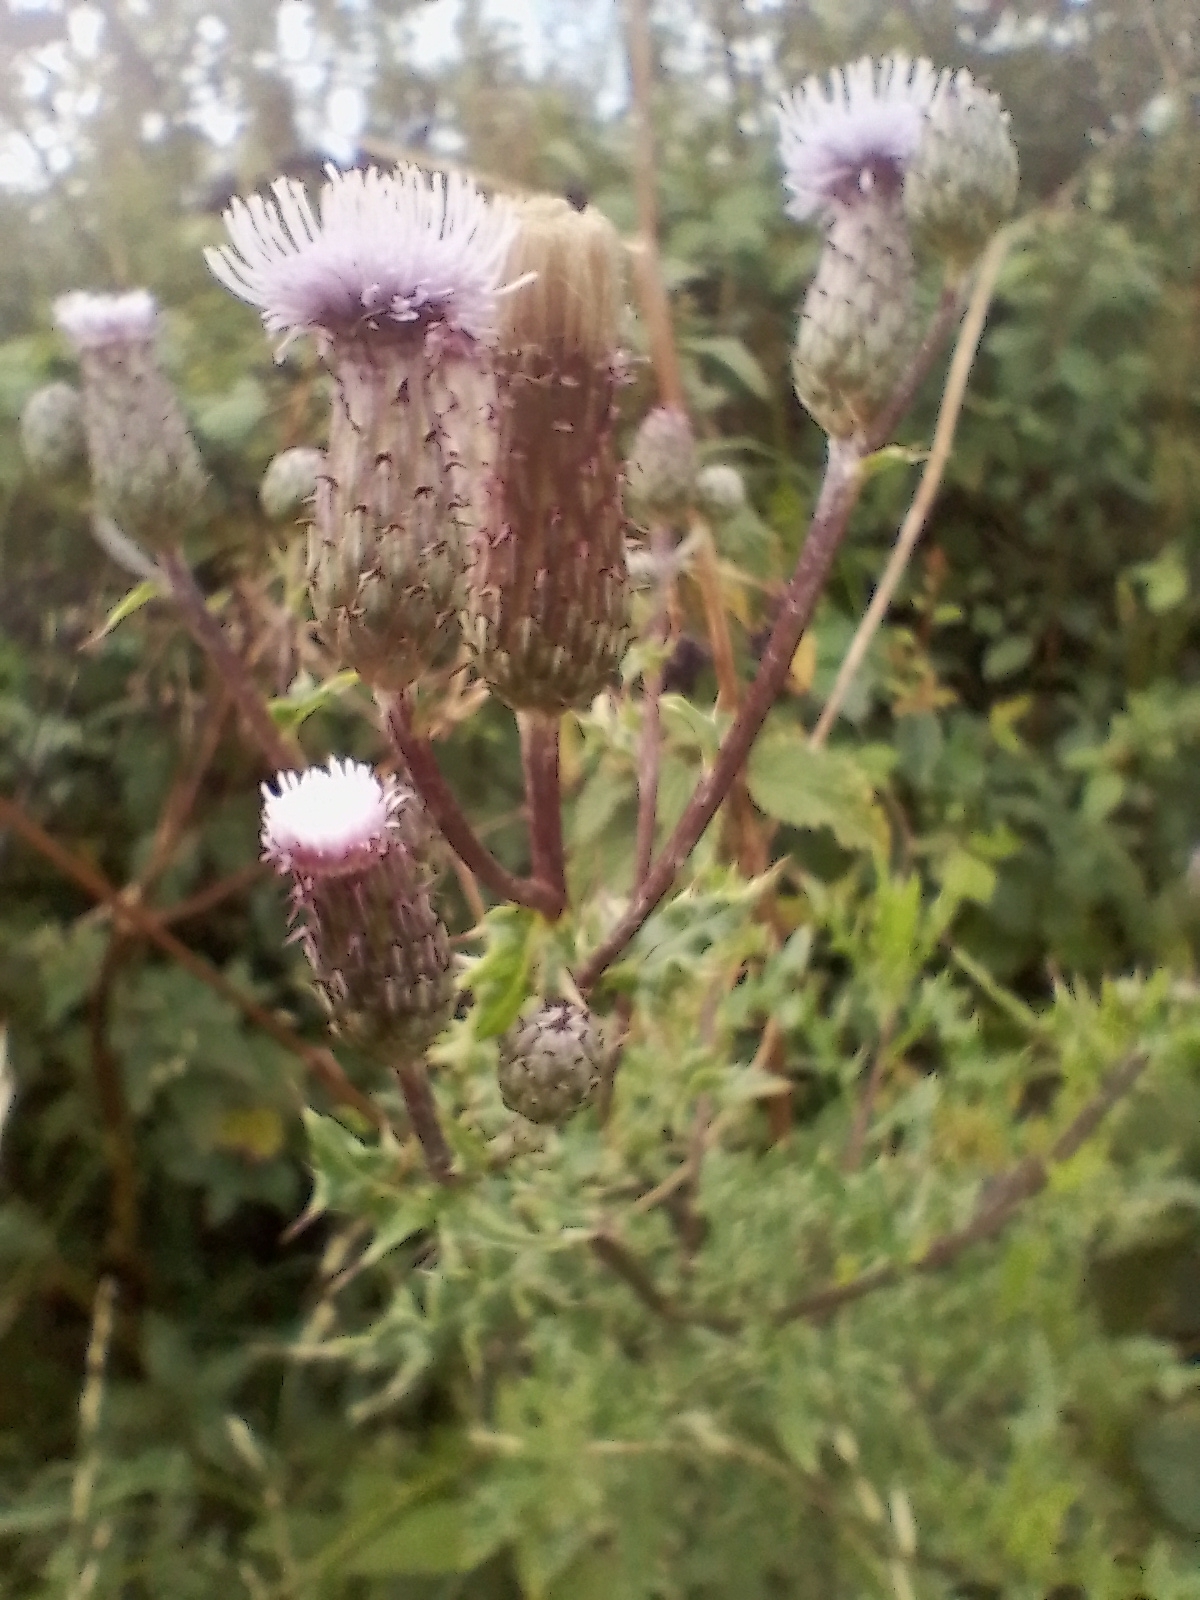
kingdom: Plantae
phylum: Tracheophyta
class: Magnoliopsida
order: Asterales
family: Asteraceae
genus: Cirsium
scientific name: Cirsium arvense
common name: Creeping thistle
